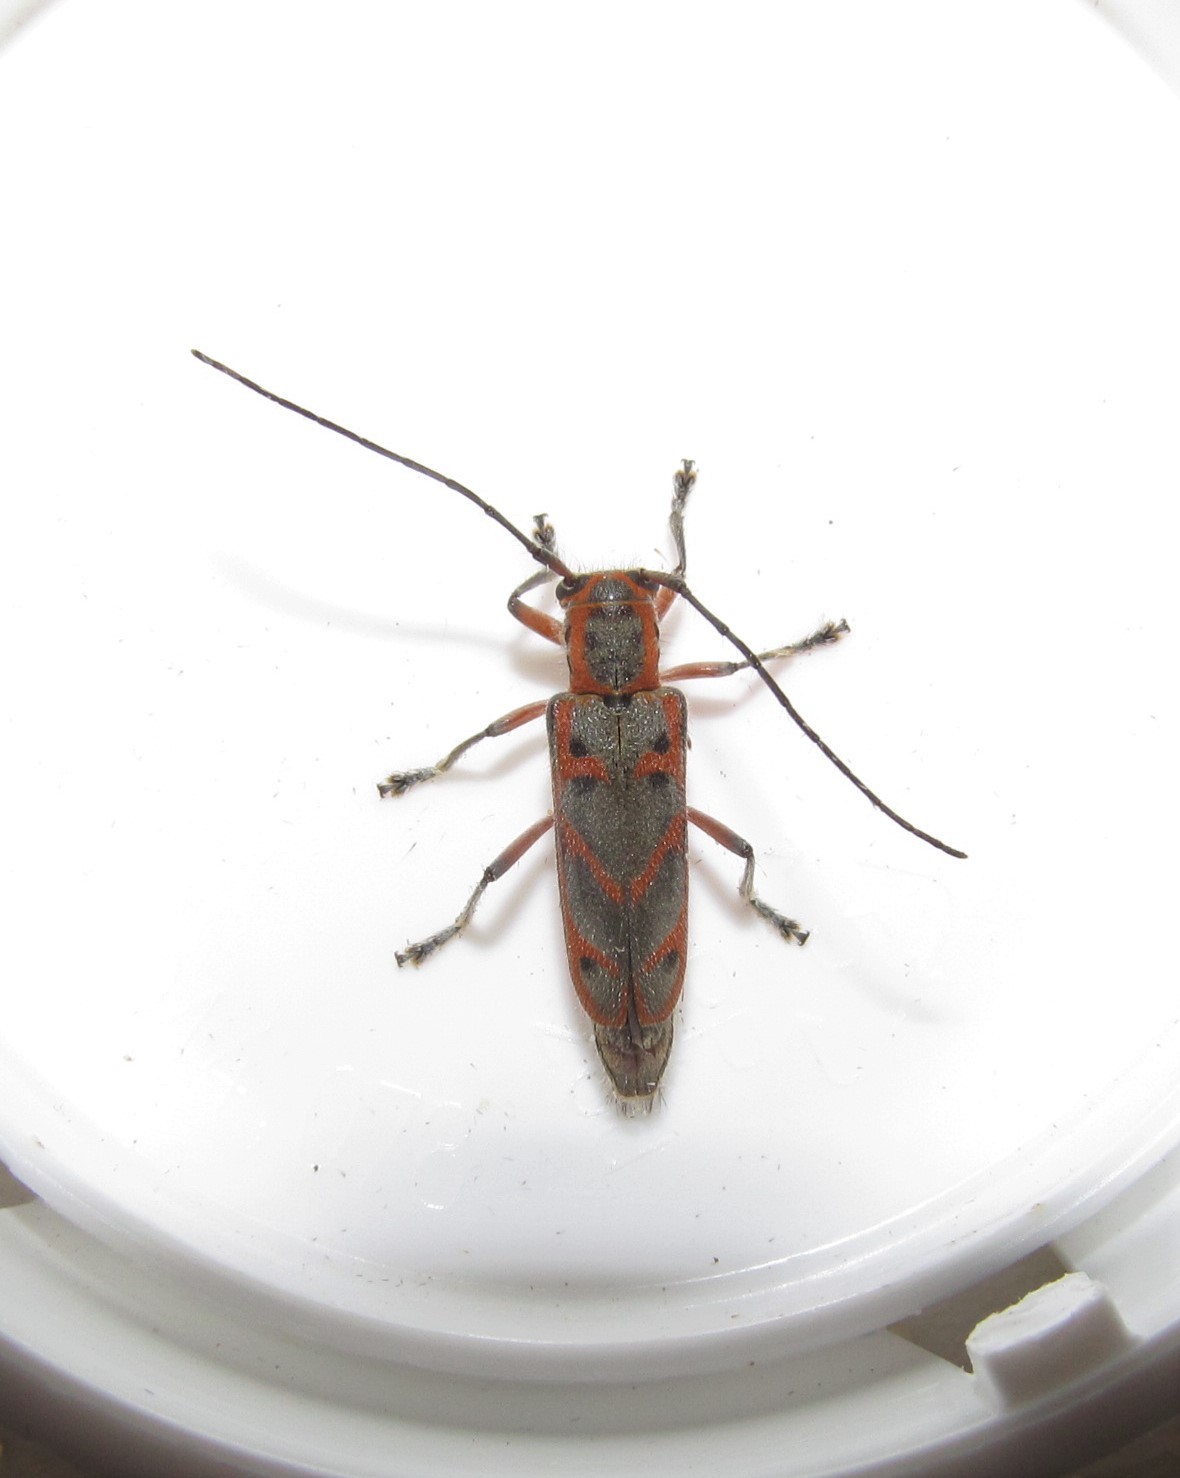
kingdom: Animalia
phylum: Arthropoda
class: Insecta
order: Coleoptera
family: Cerambycidae
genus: Saperda
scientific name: Saperda tridentata
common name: Elm borer
